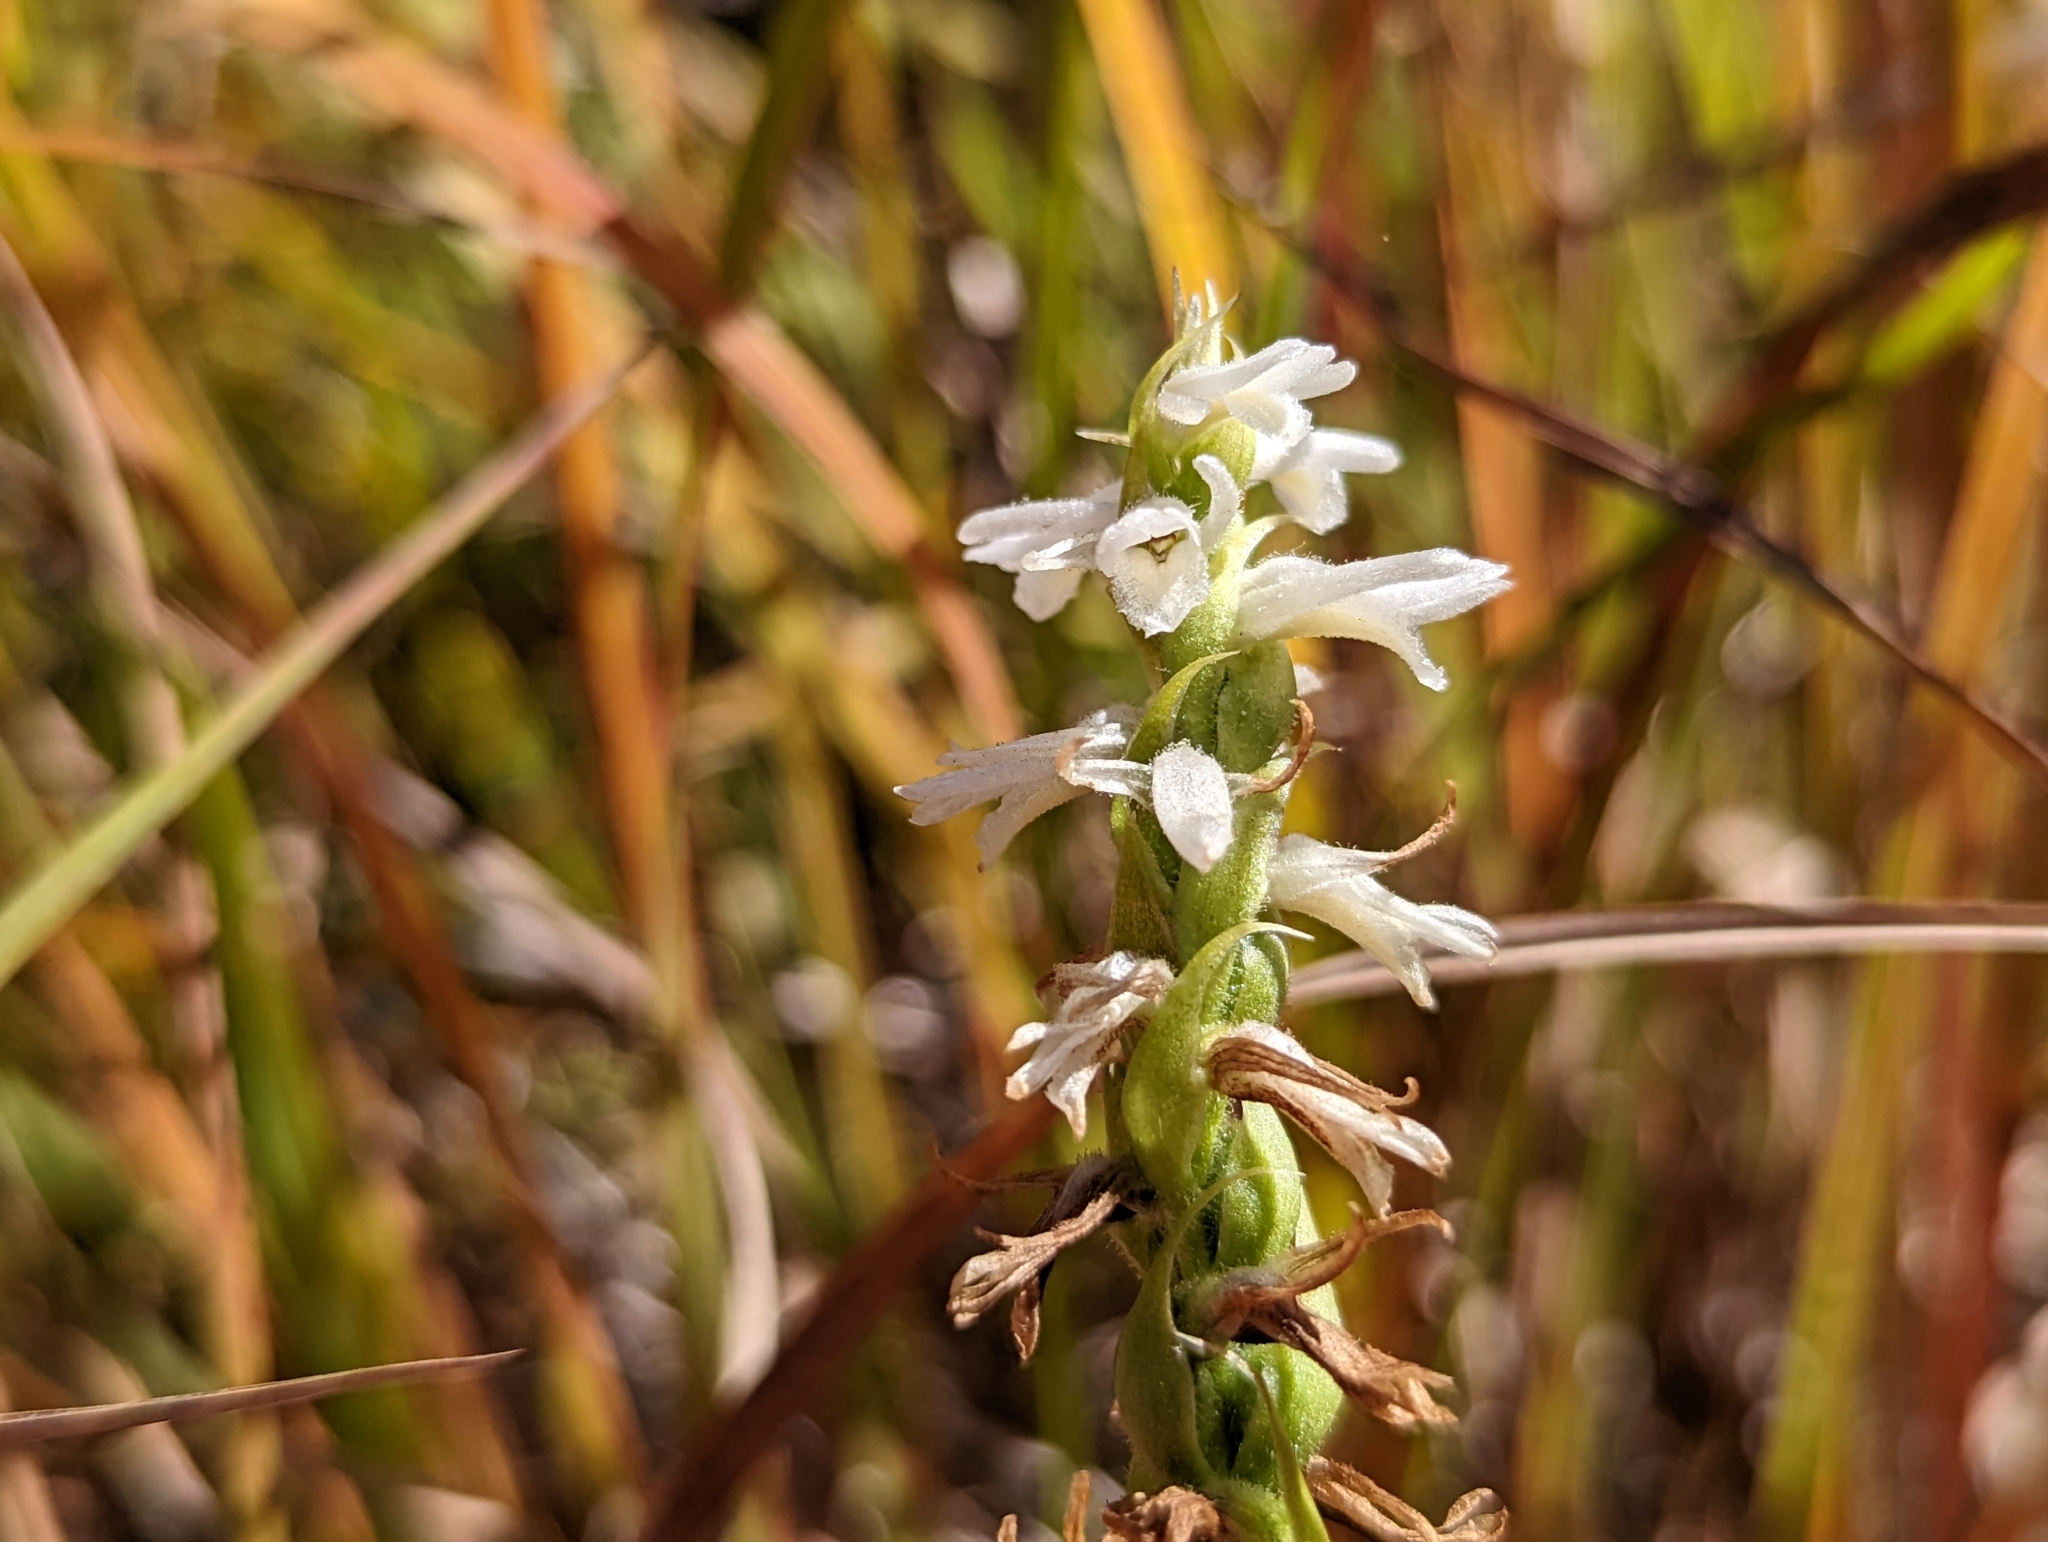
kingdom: Plantae
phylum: Tracheophyta
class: Liliopsida
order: Asparagales
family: Orchidaceae
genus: Spiranthes
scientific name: Spiranthes magnicamporum
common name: Great plains ladies'-tresses
